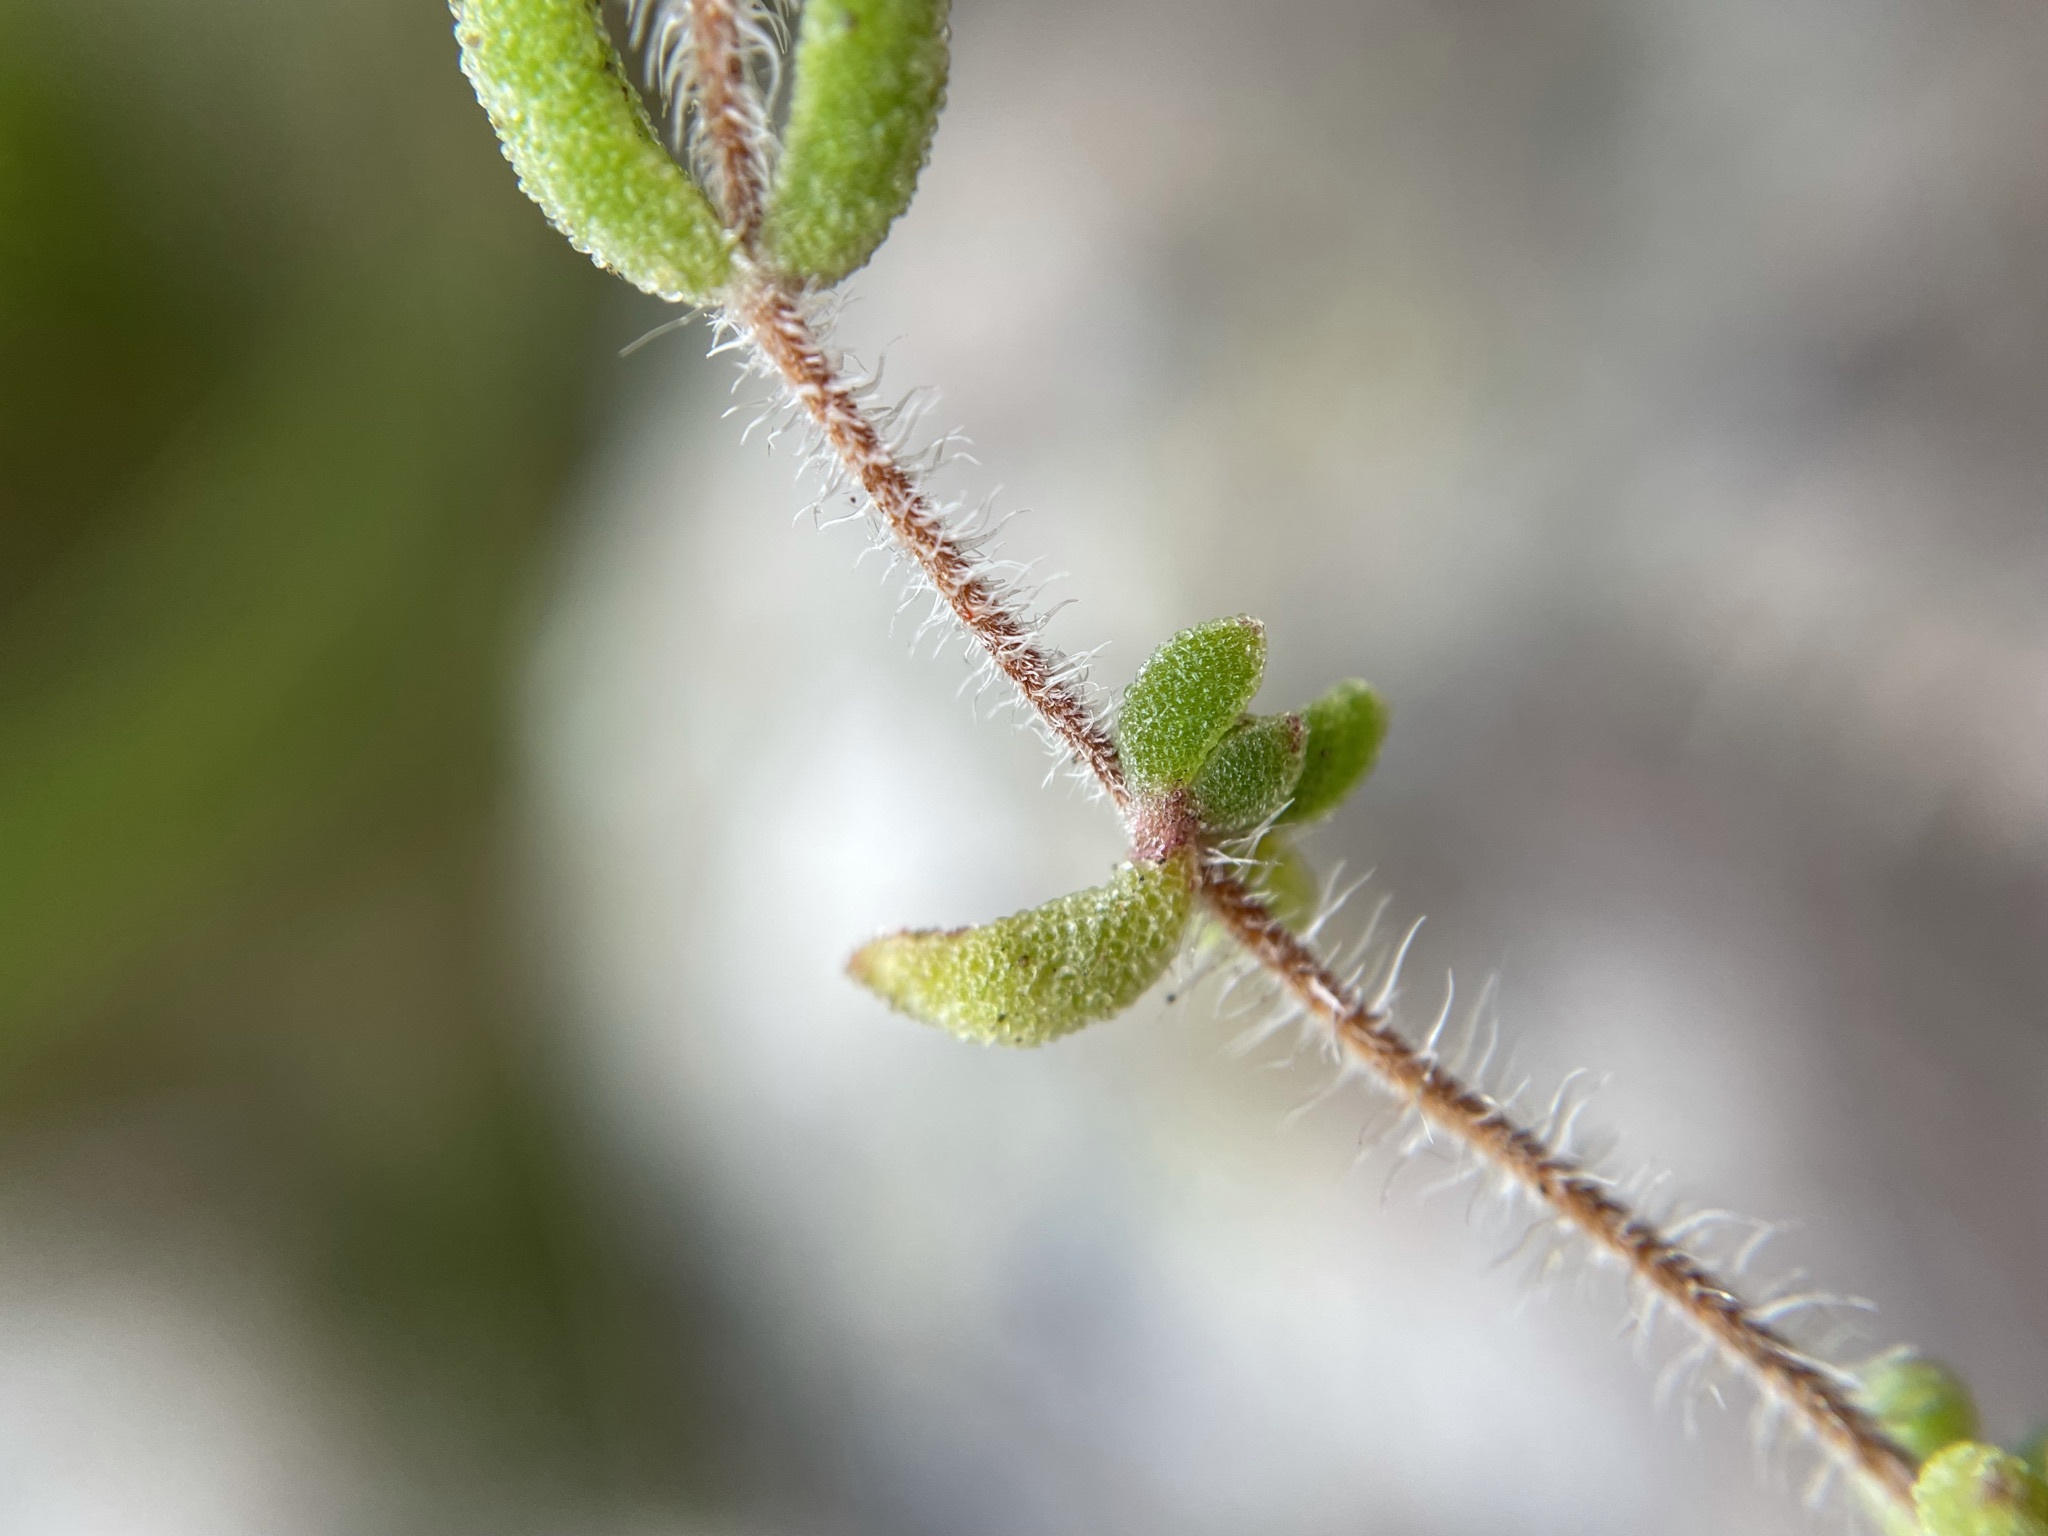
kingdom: Plantae
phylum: Tracheophyta
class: Magnoliopsida
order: Caryophyllales
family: Aizoaceae
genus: Drosanthemum
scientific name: Drosanthemum stokoei
